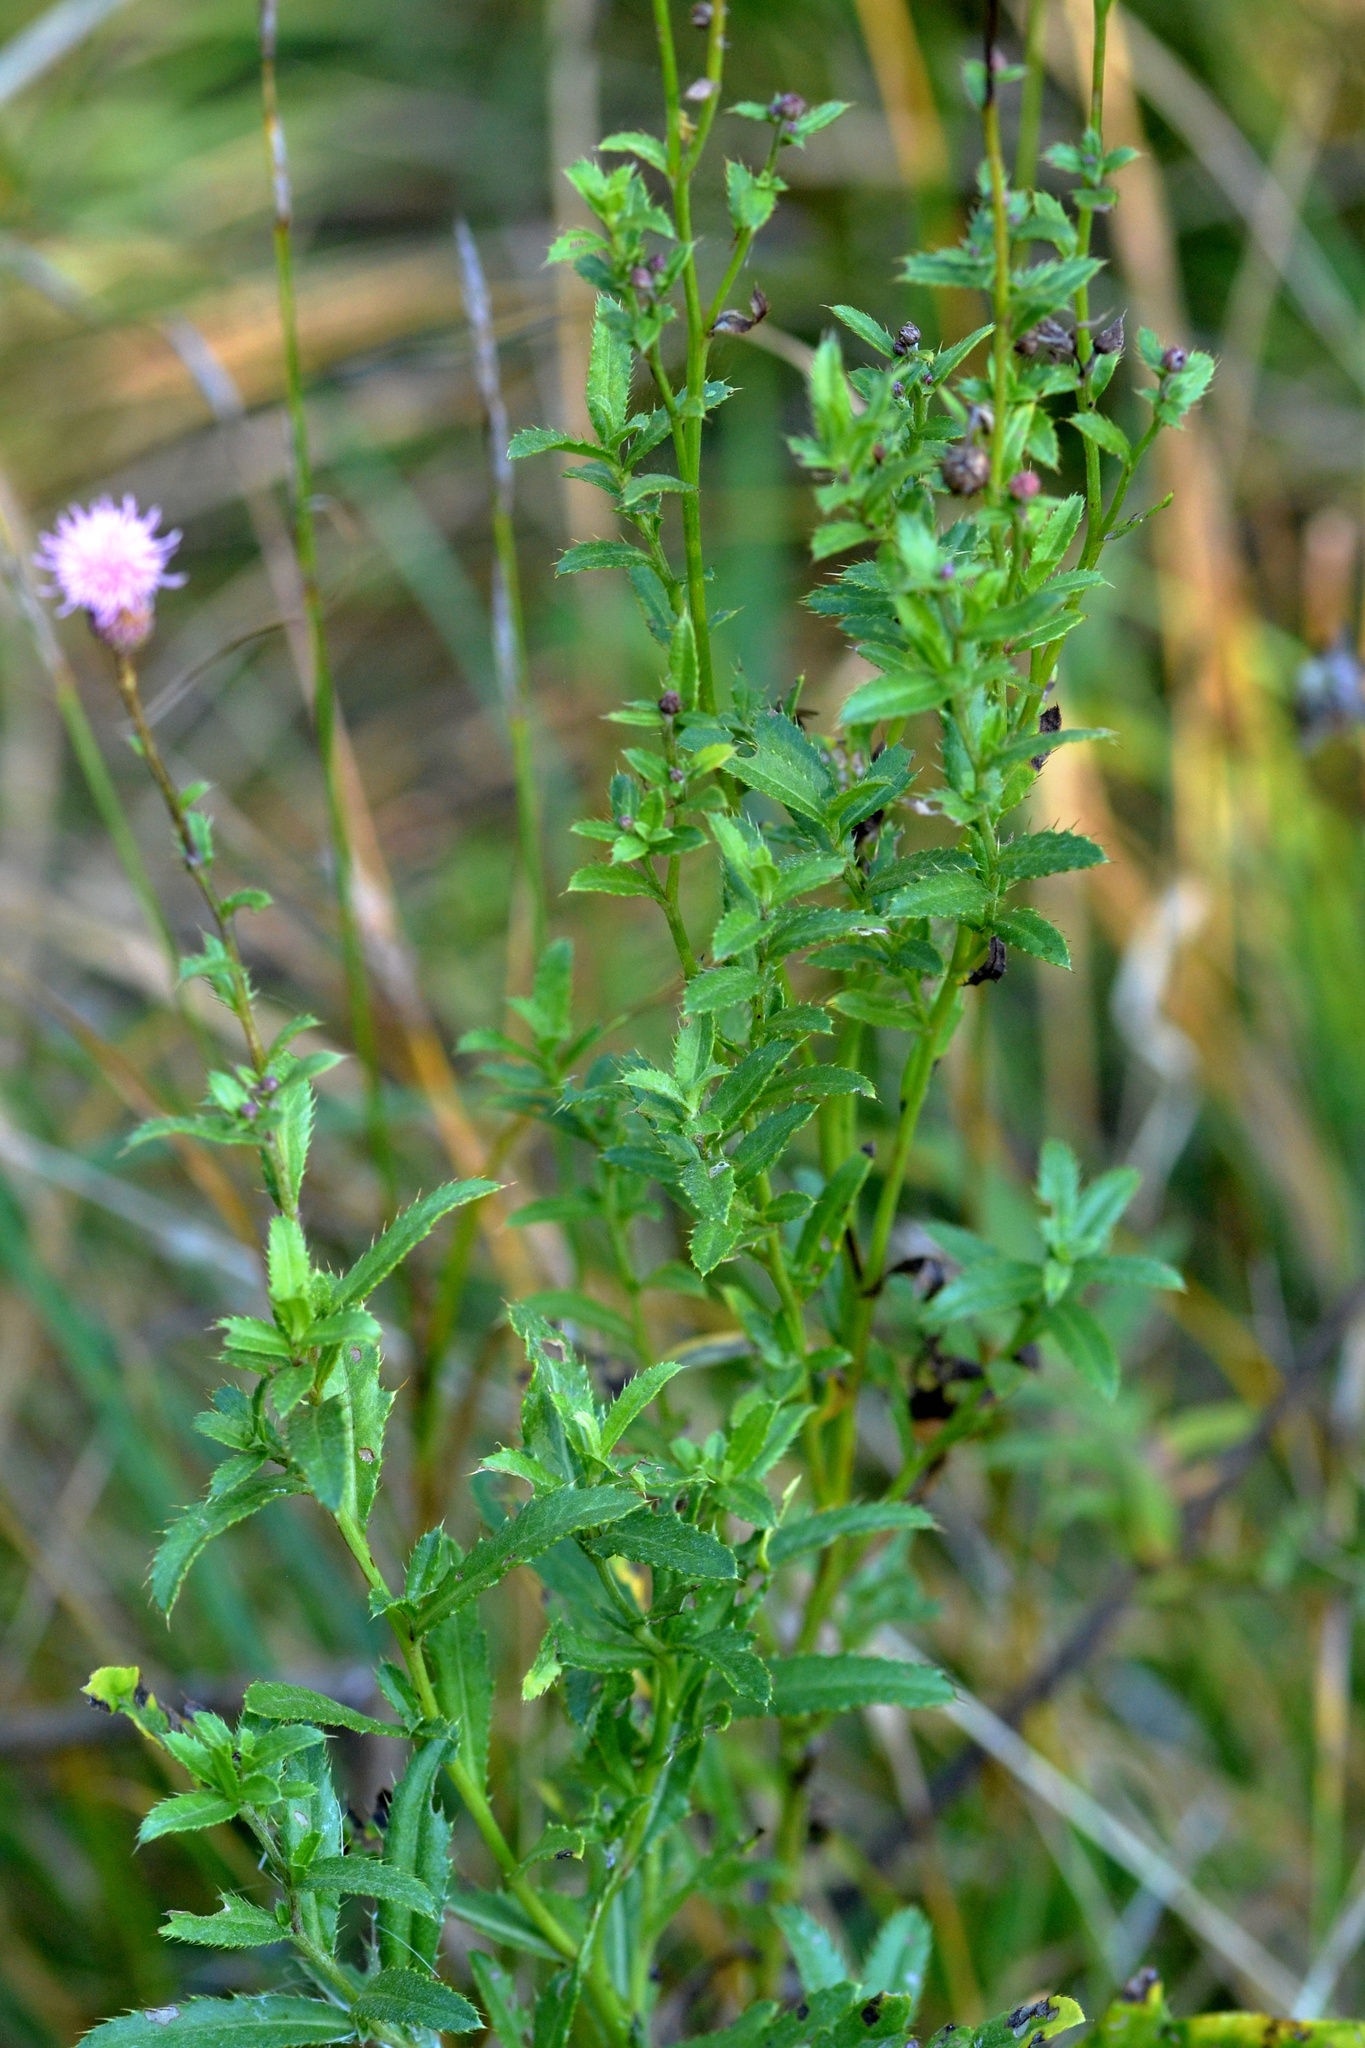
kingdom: Plantae
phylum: Tracheophyta
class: Magnoliopsida
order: Asterales
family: Asteraceae
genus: Cirsium
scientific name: Cirsium arvense
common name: Creeping thistle
